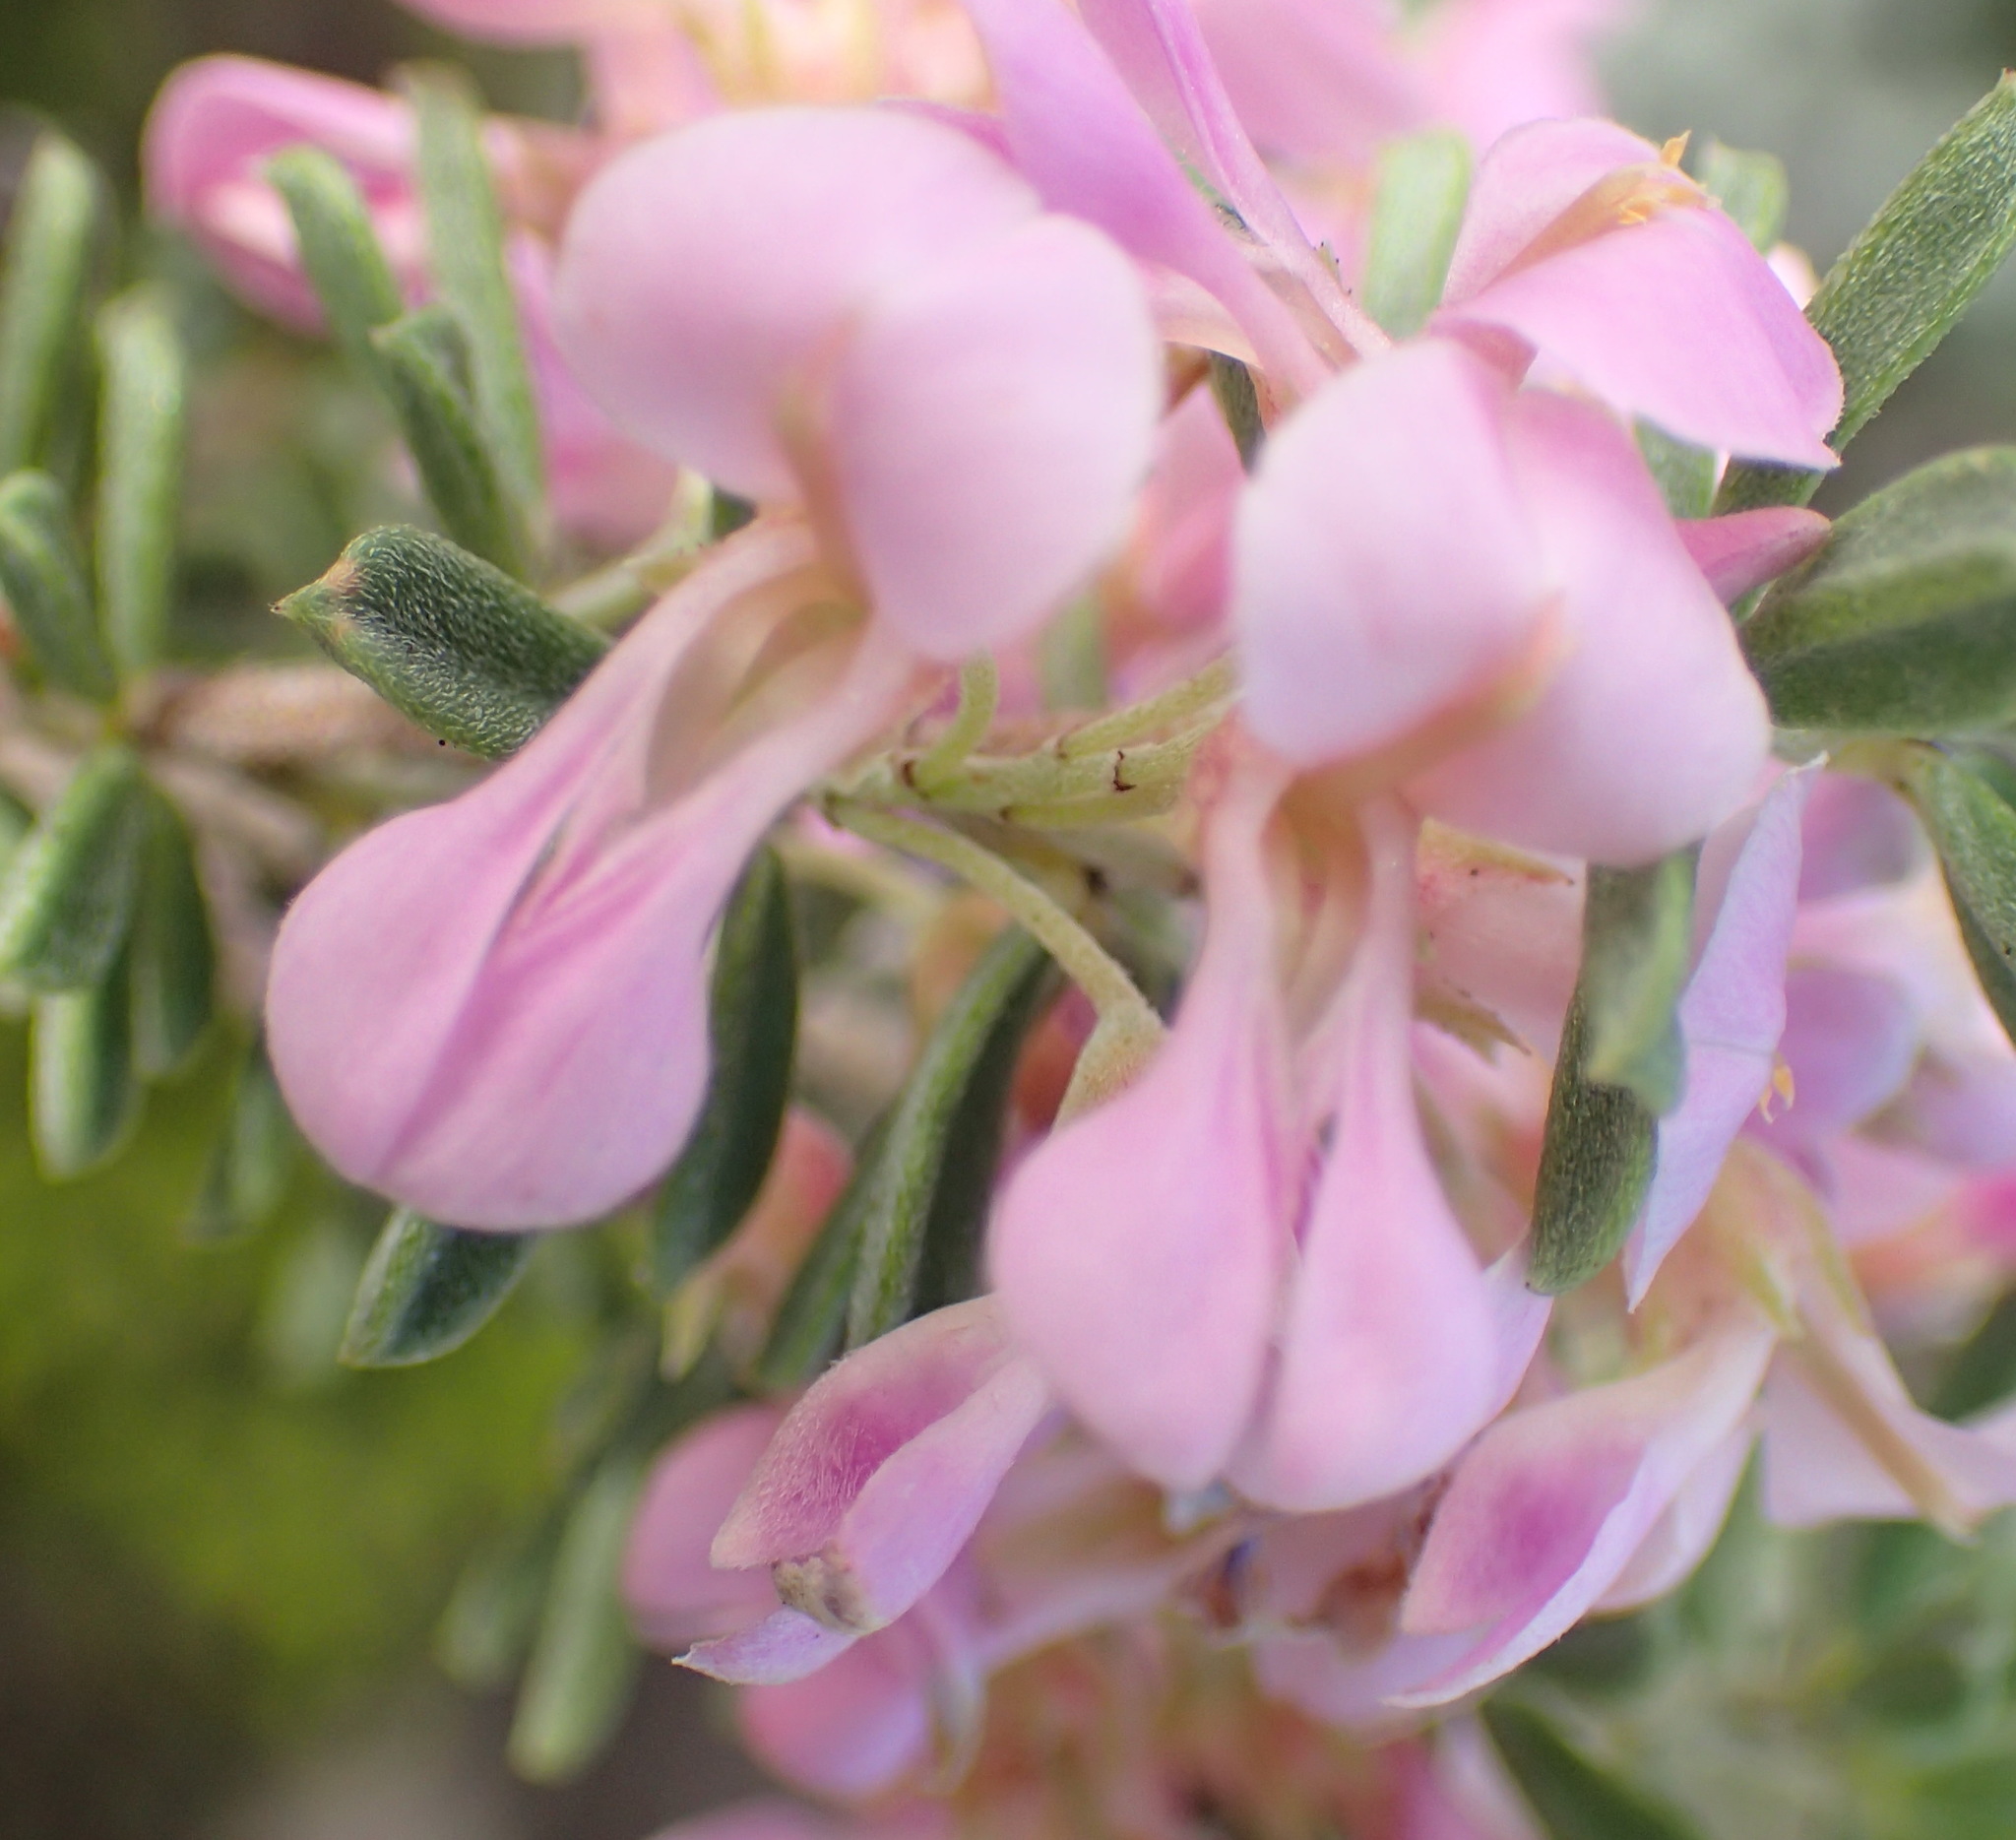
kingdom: Plantae
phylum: Tracheophyta
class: Magnoliopsida
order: Fabales
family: Fabaceae
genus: Indigofera
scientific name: Indigofera flabellata
